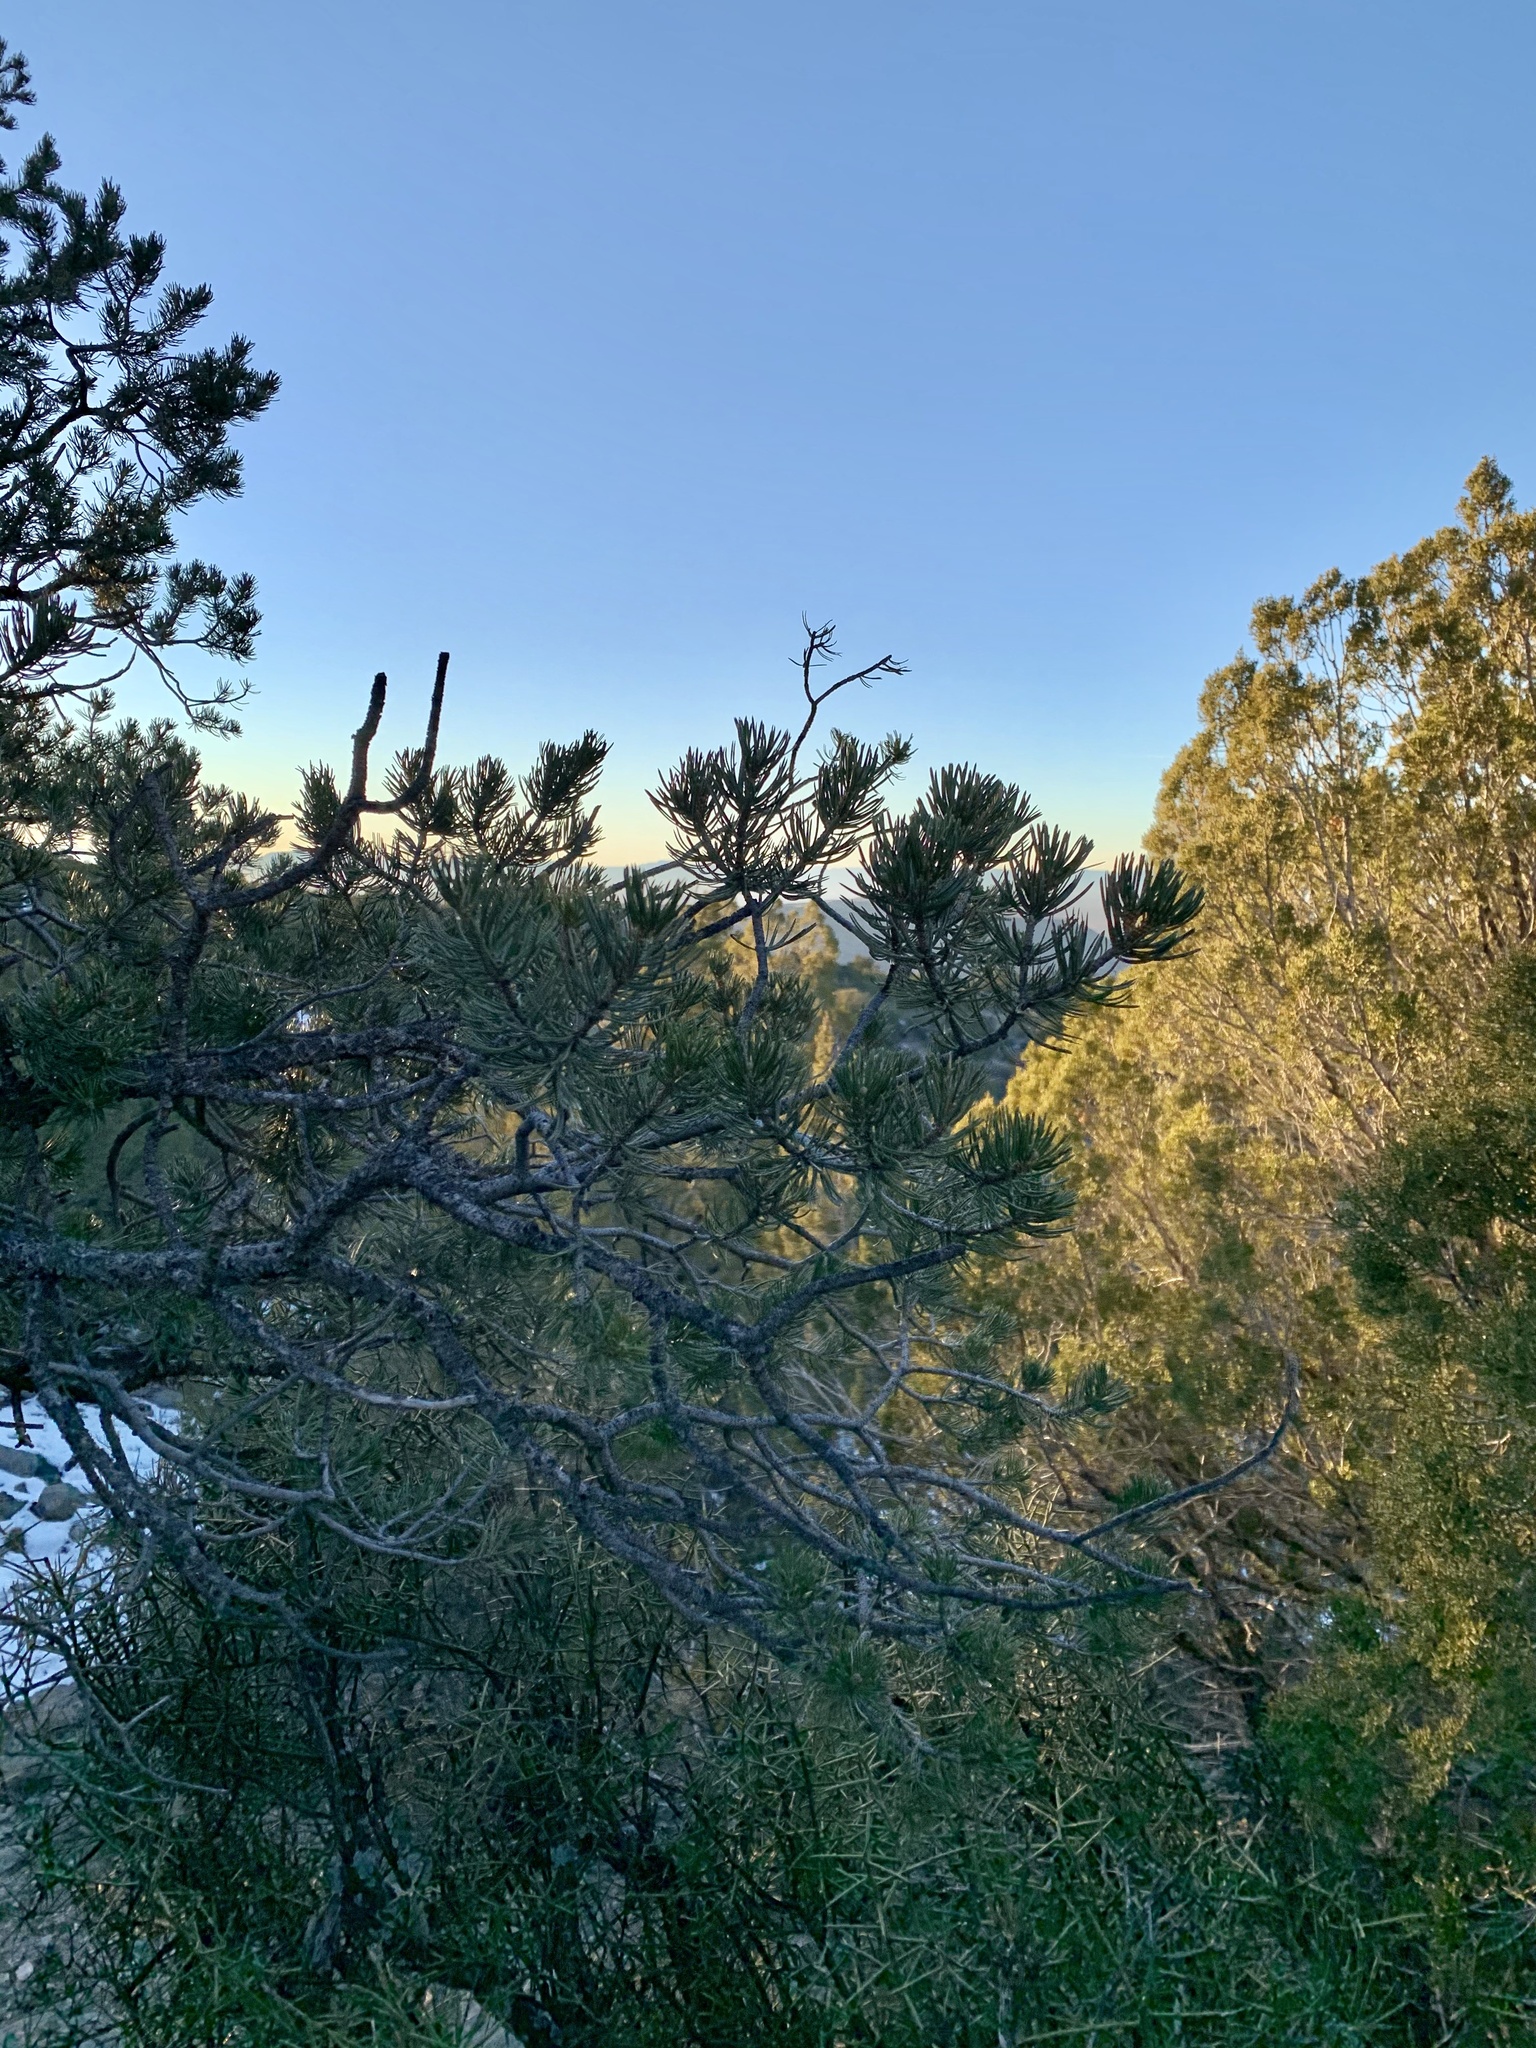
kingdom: Plantae
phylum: Tracheophyta
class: Pinopsida
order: Pinales
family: Pinaceae
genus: Pinus
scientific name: Pinus edulis
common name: Colorado pinyon
